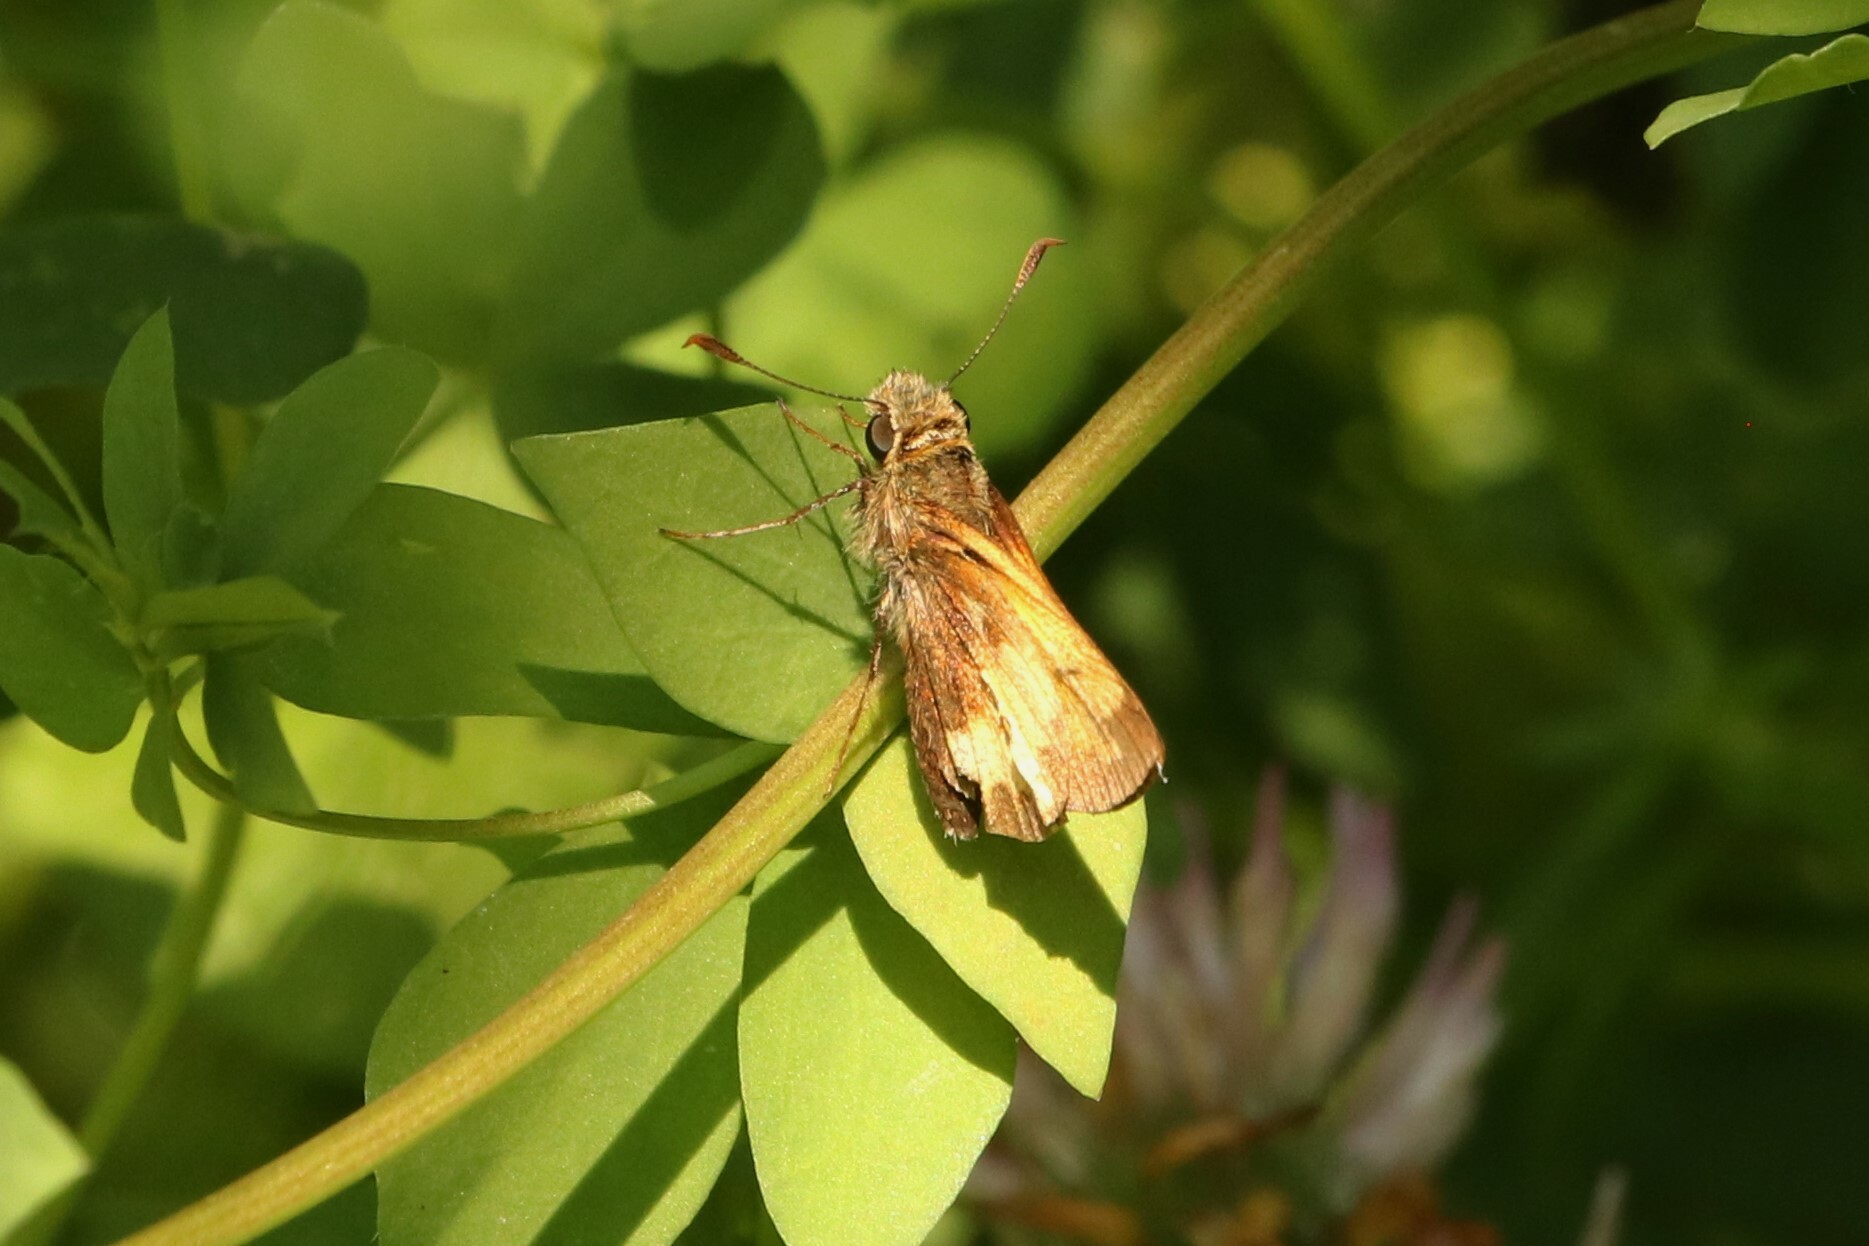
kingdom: Animalia
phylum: Arthropoda
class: Insecta
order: Lepidoptera
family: Hesperiidae
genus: Lon
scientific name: Lon hobomok
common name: Hobomok skipper
